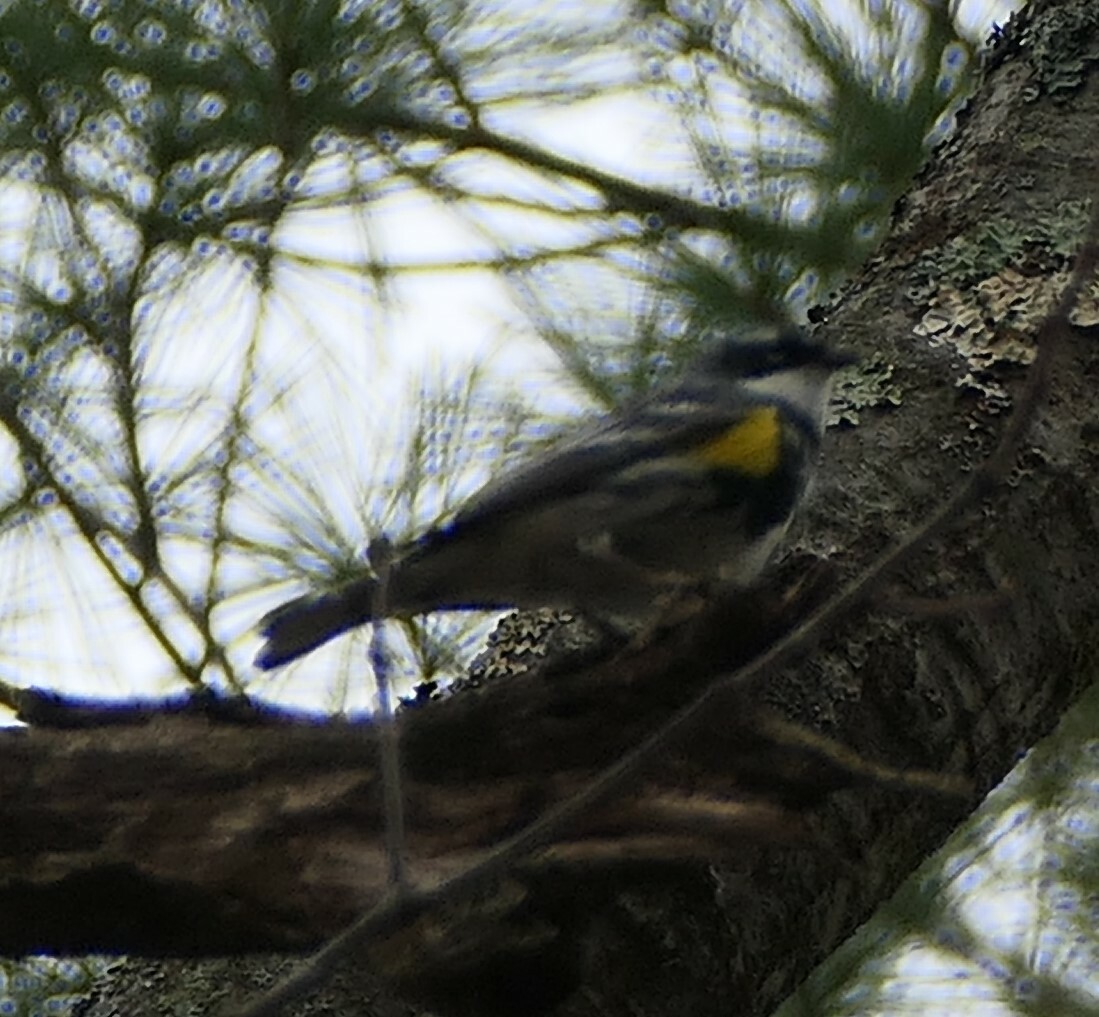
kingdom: Animalia
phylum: Chordata
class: Aves
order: Passeriformes
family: Parulidae
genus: Setophaga
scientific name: Setophaga coronata
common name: Myrtle warbler
